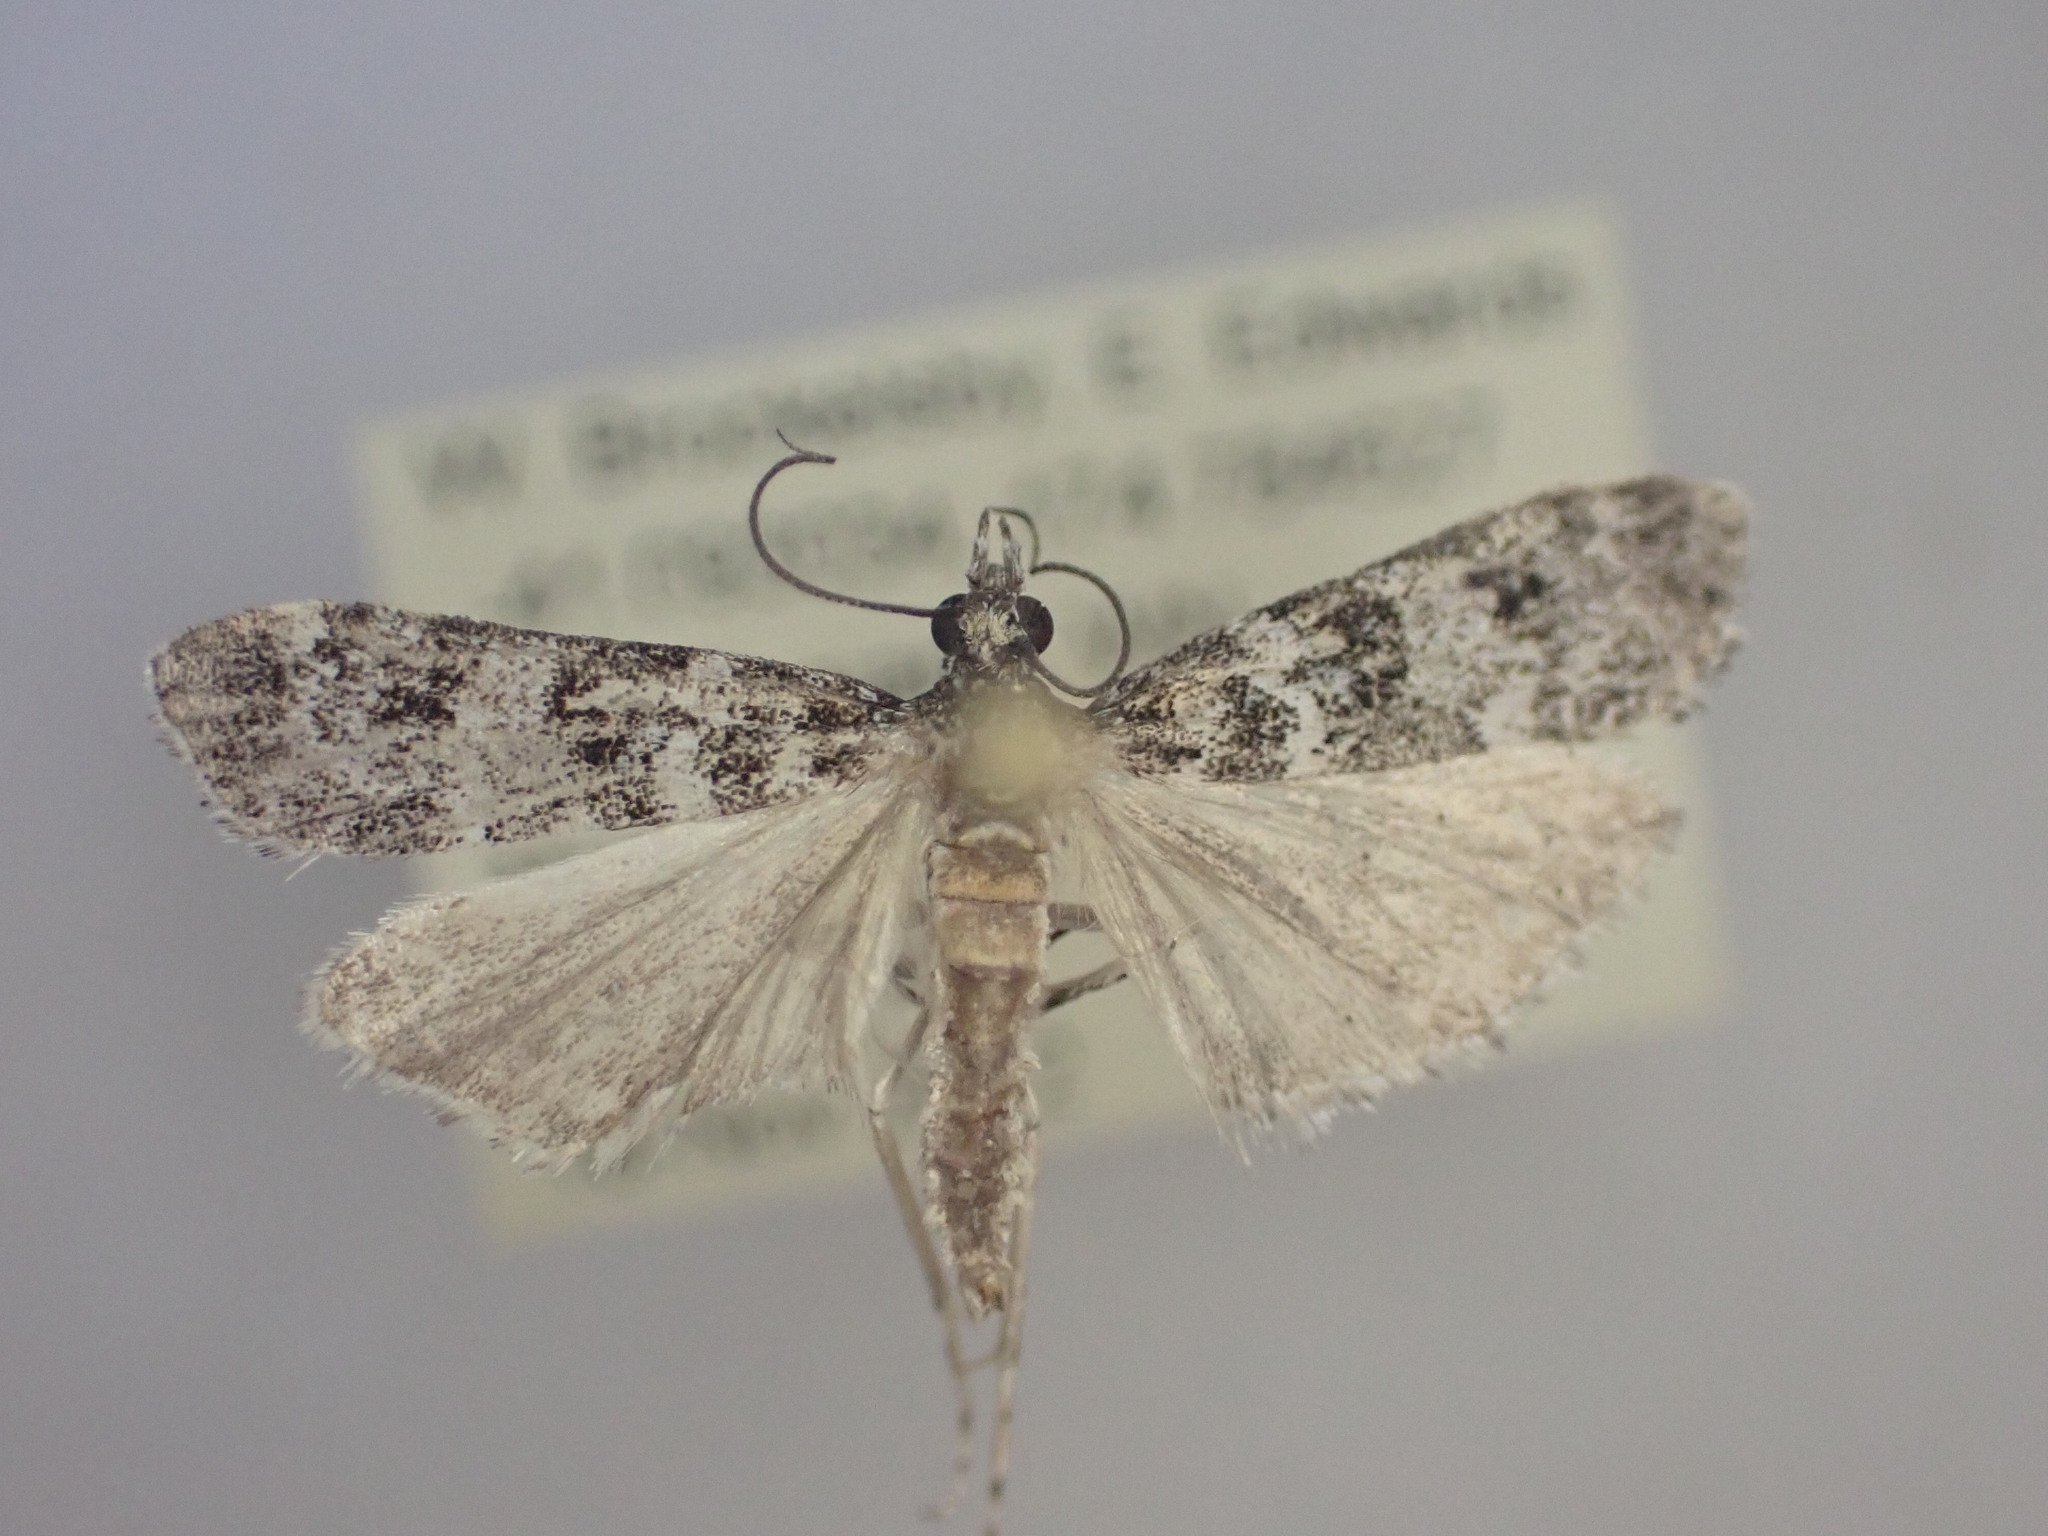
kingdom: Animalia
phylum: Arthropoda
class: Insecta
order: Lepidoptera
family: Crambidae
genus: Eudonia
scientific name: Eudonia philerga
